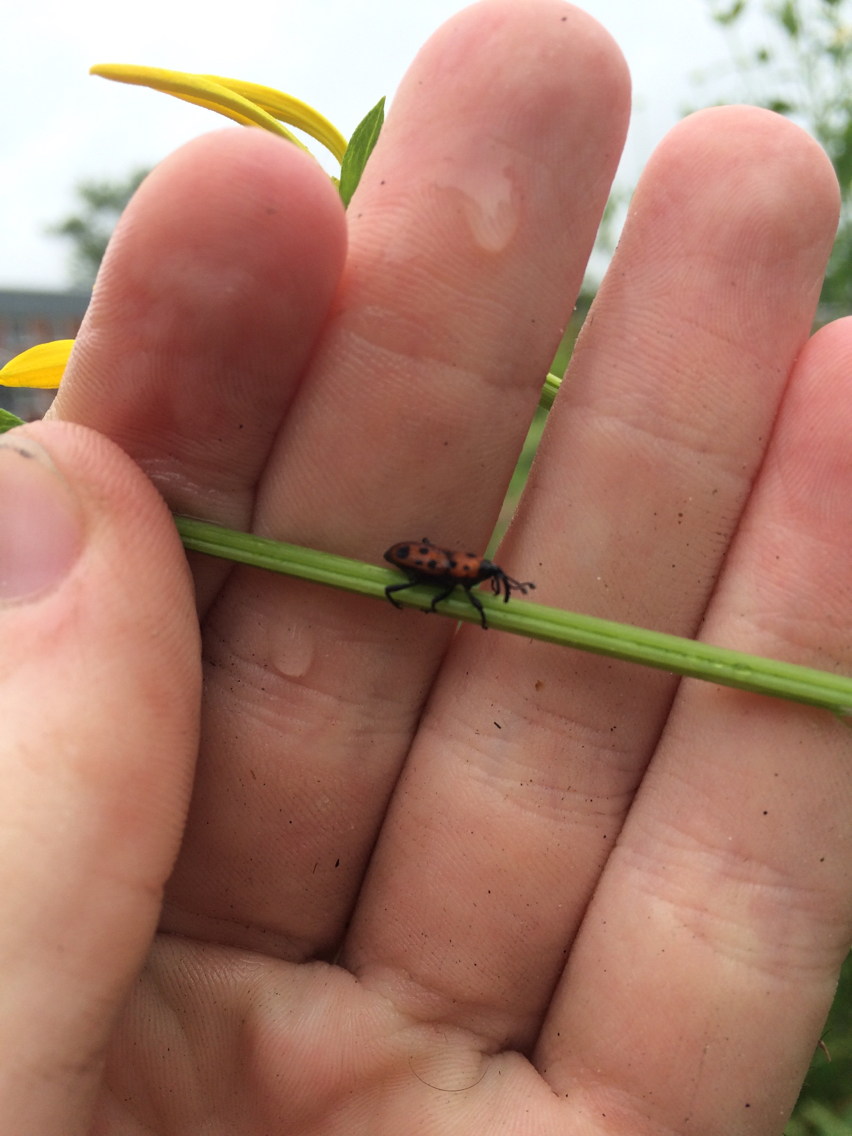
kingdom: Animalia
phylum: Arthropoda
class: Insecta
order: Coleoptera
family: Dryophthoridae
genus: Rhodobaenus
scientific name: Rhodobaenus tredecimpunctatus
